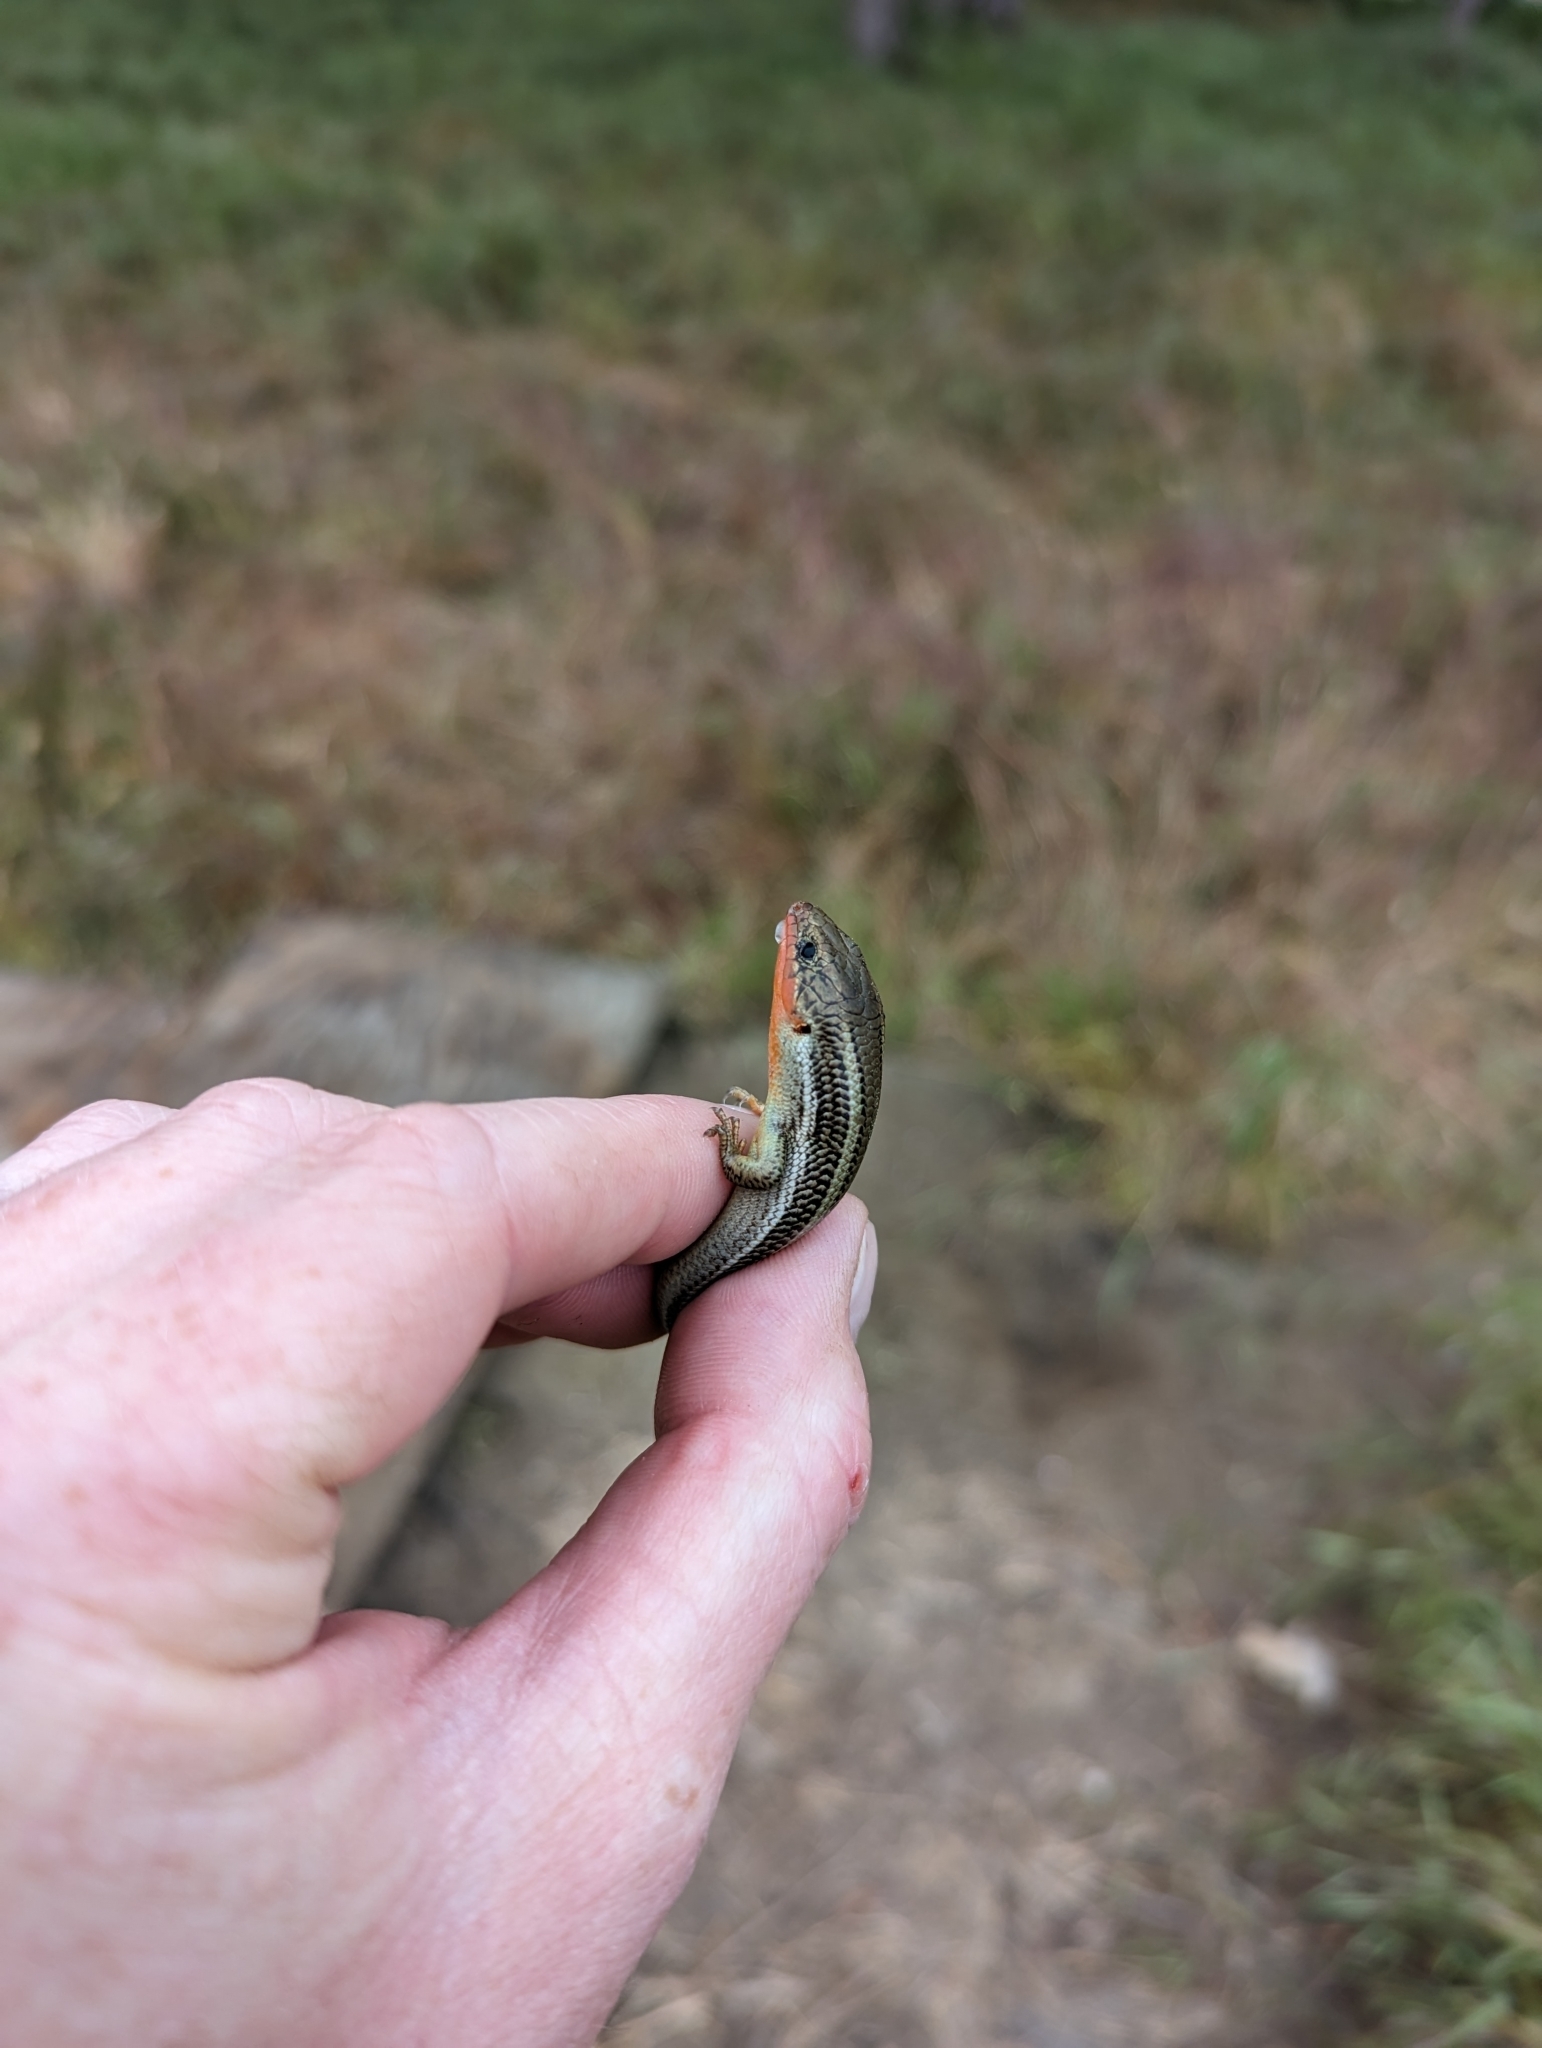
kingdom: Animalia
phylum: Chordata
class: Squamata
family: Scincidae
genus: Plestiodon
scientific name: Plestiodon skiltonianus
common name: Coronado island skink [interparietalis]
